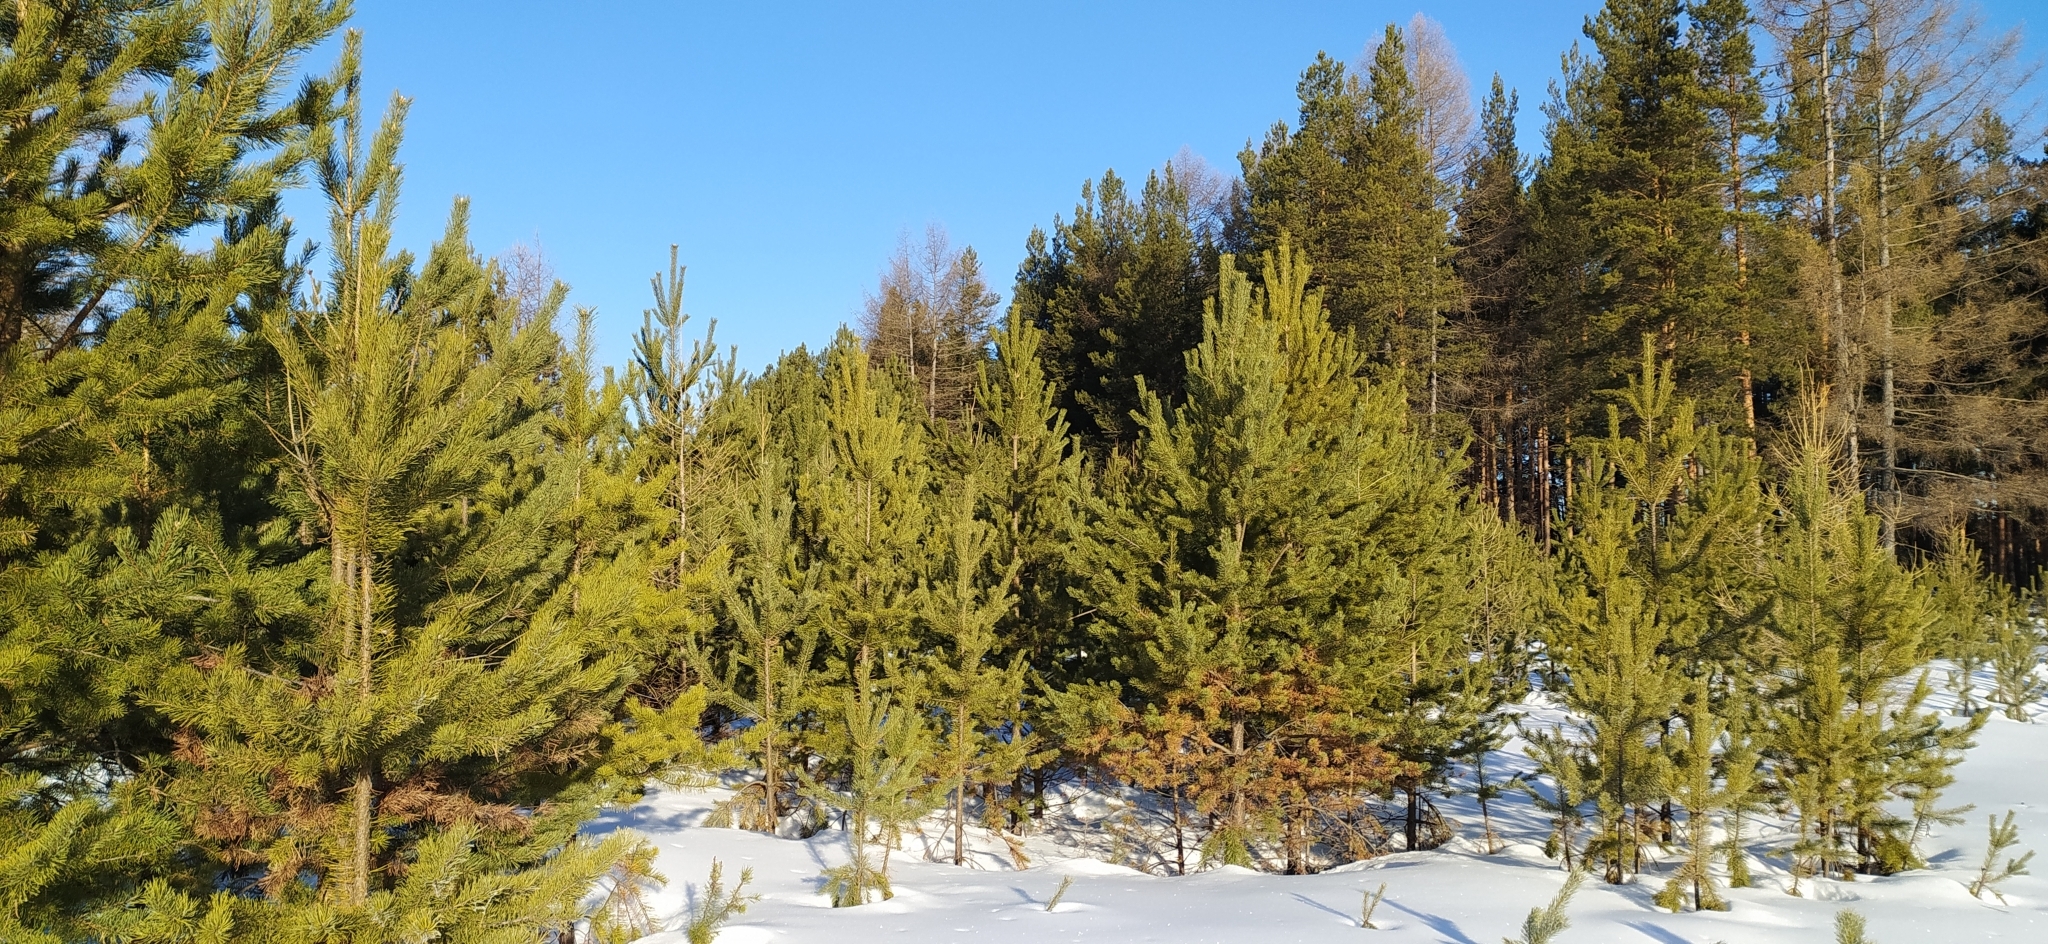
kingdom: Plantae
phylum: Tracheophyta
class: Pinopsida
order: Pinales
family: Pinaceae
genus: Pinus
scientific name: Pinus sylvestris
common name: Scots pine
